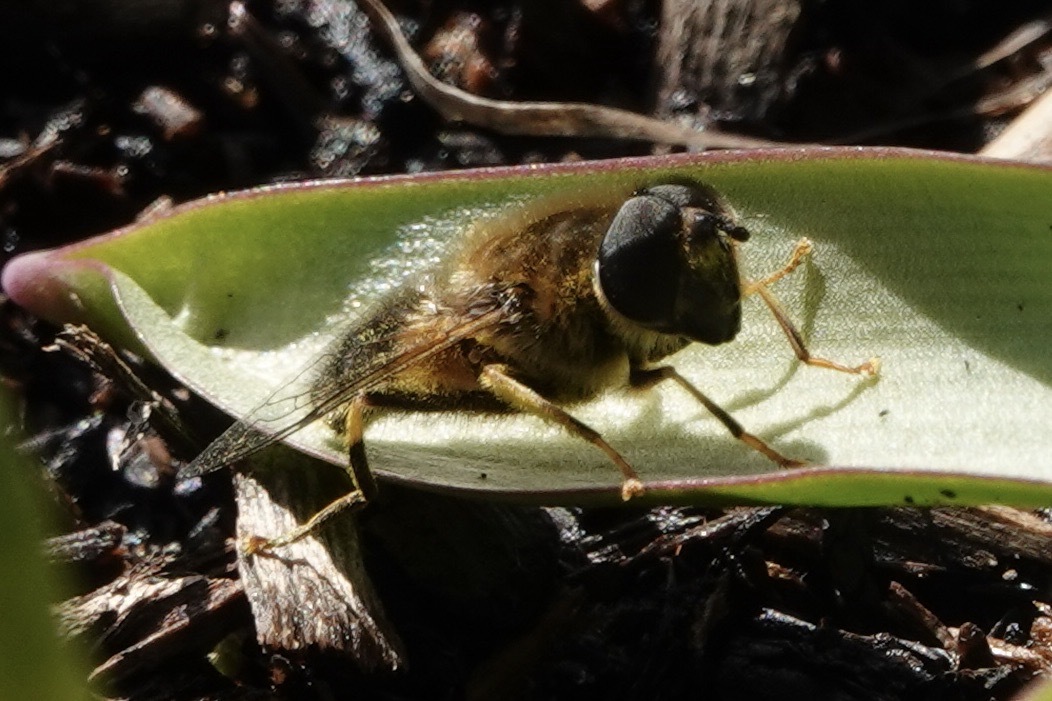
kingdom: Animalia
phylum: Arthropoda
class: Insecta
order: Diptera
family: Syrphidae
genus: Eristalis
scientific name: Eristalis pertinax
